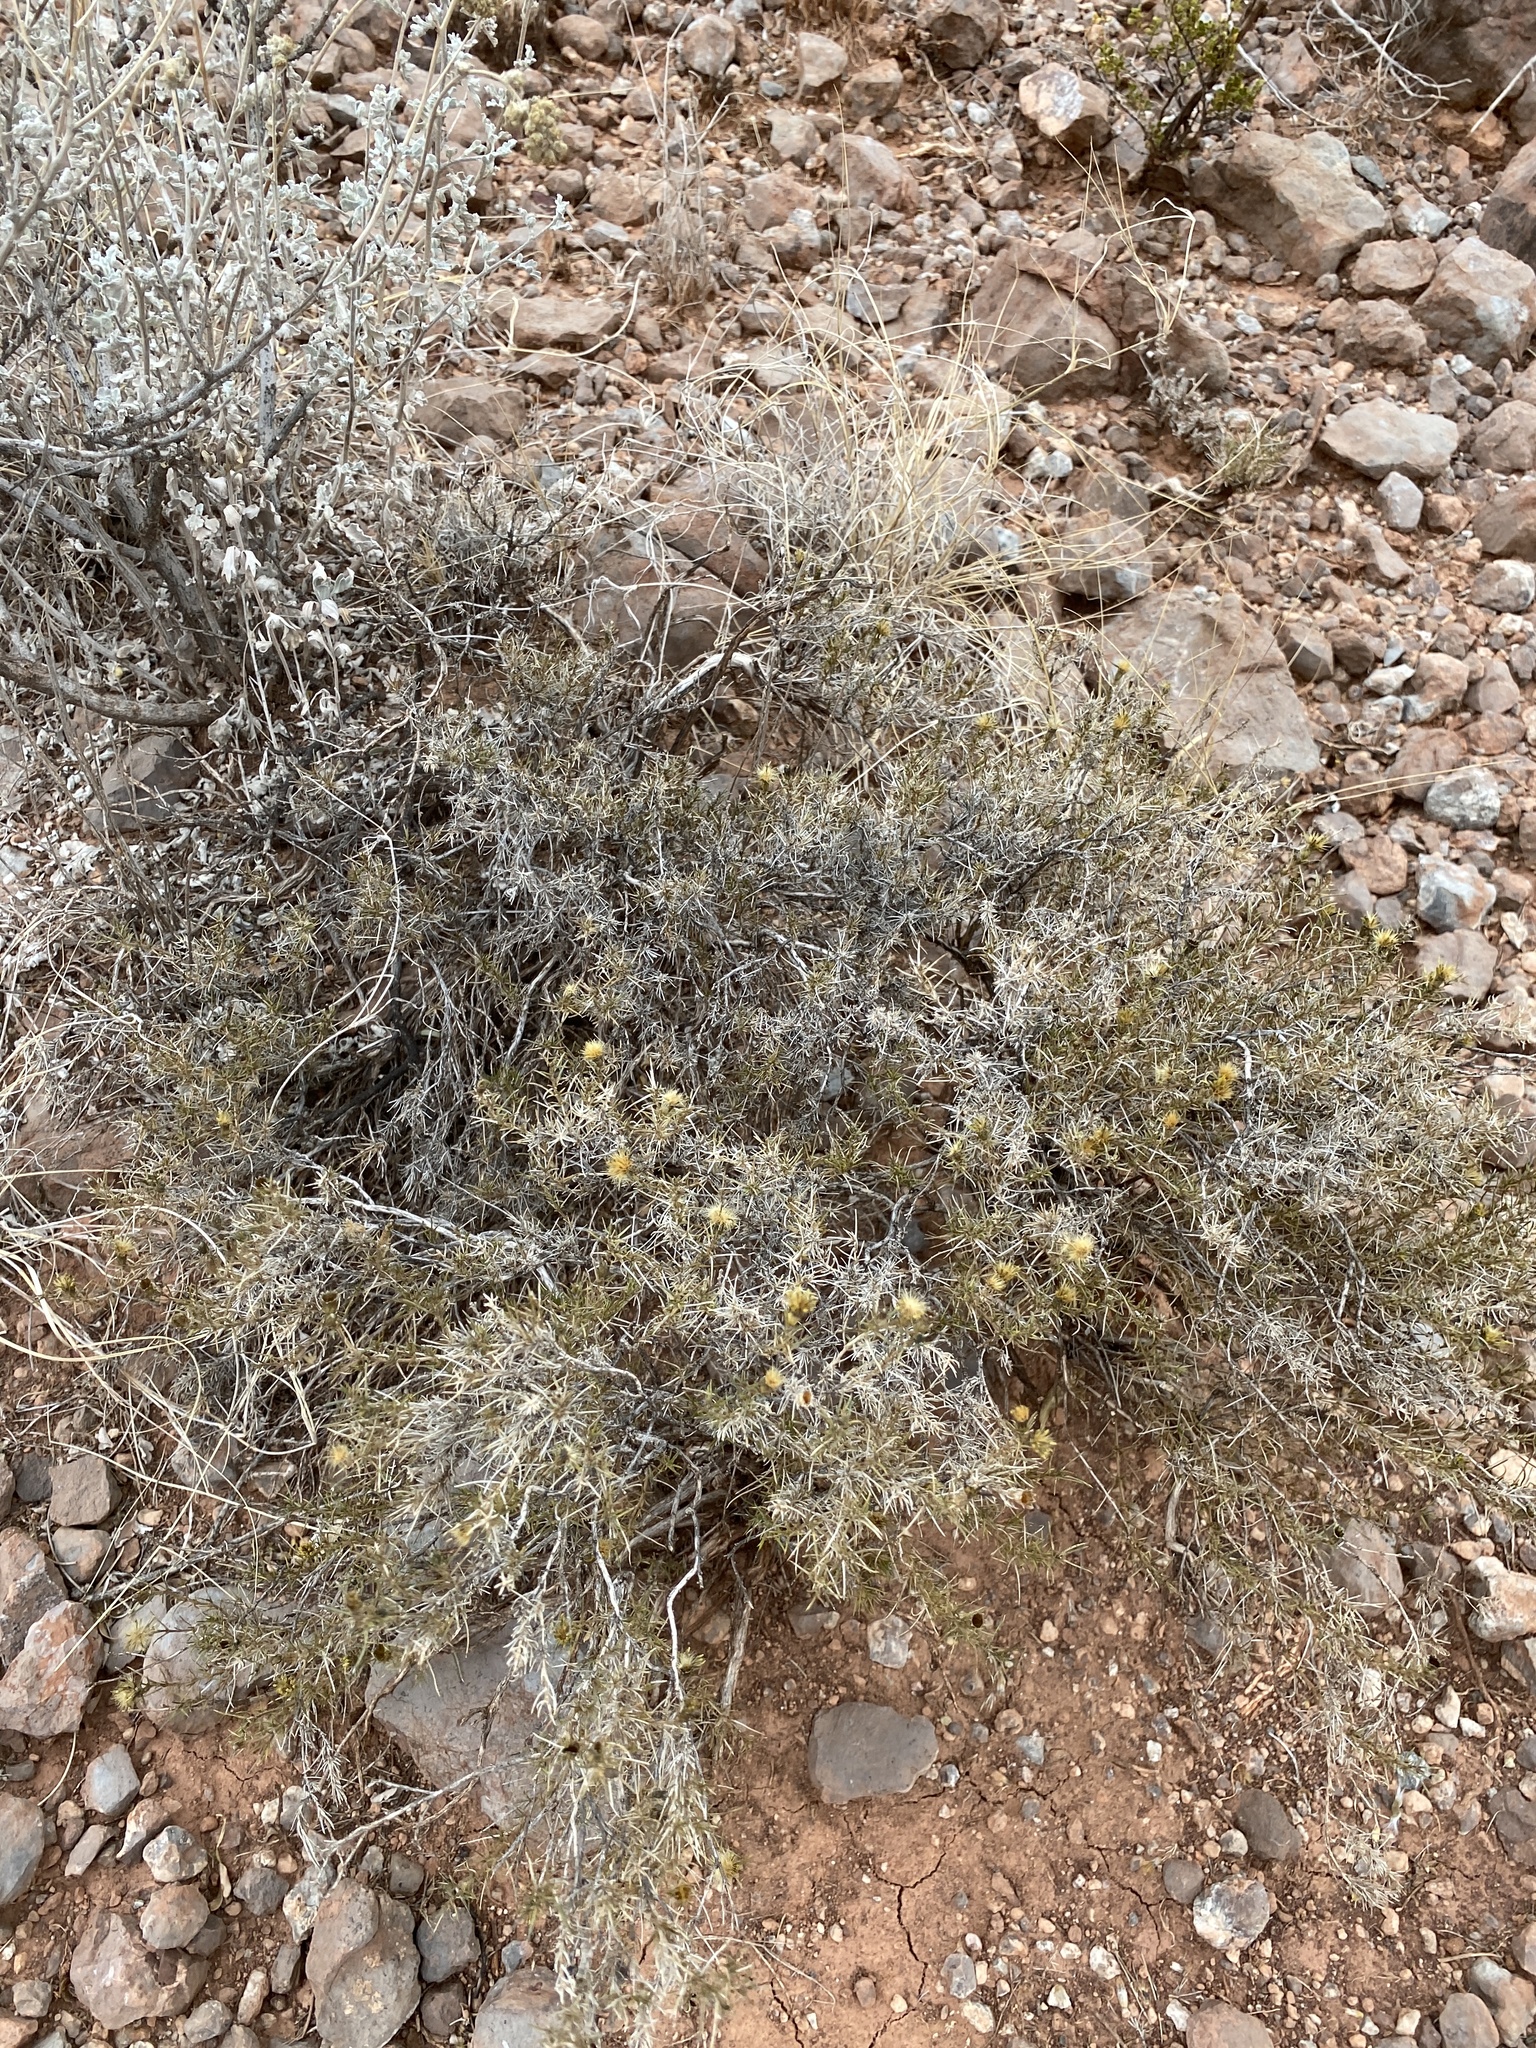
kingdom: Plantae
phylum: Tracheophyta
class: Magnoliopsida
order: Asterales
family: Asteraceae
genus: Thymophylla
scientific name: Thymophylla acerosa
